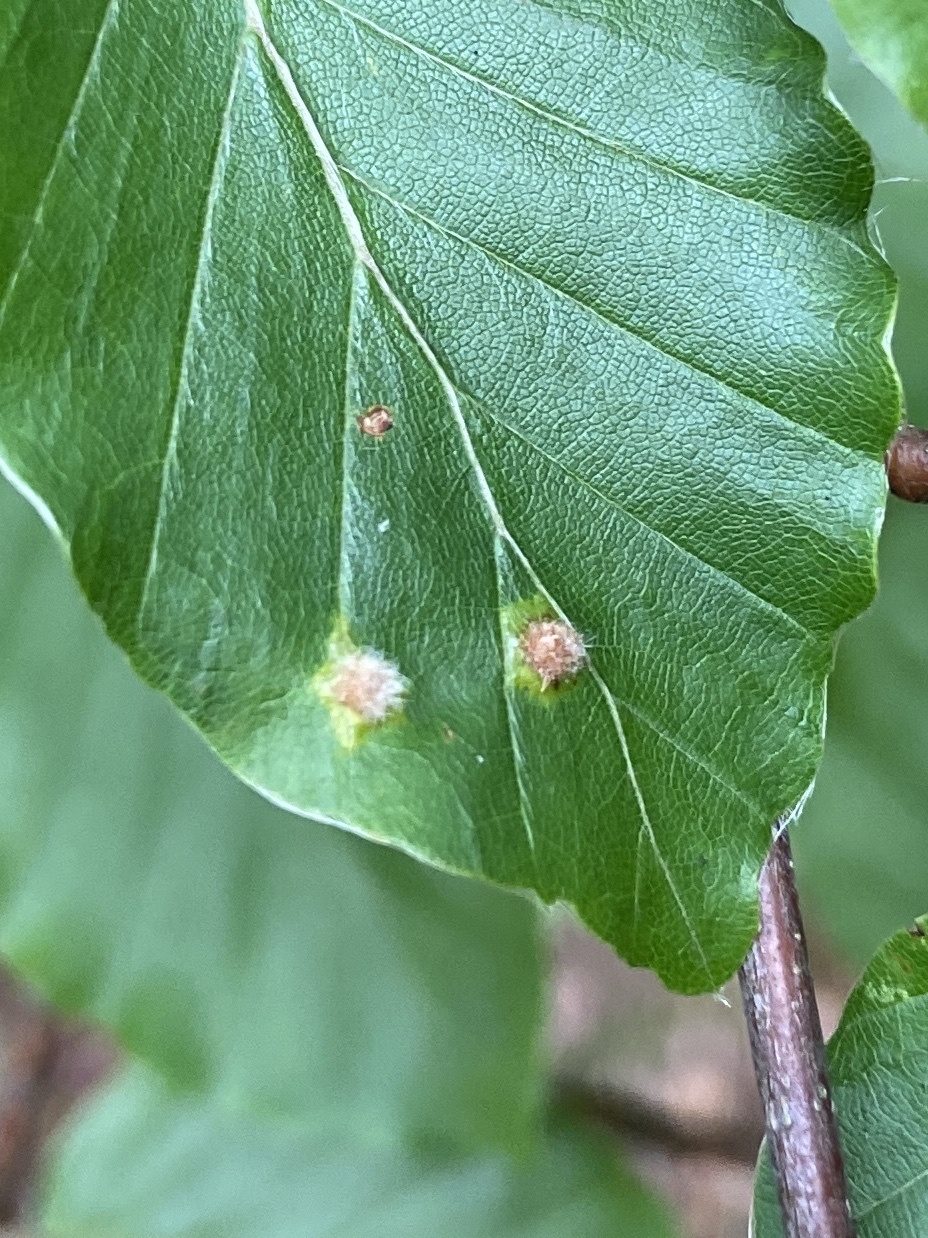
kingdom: Animalia
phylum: Arthropoda
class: Insecta
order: Diptera
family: Cecidomyiidae
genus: Hartigiola
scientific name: Hartigiola annulipes
